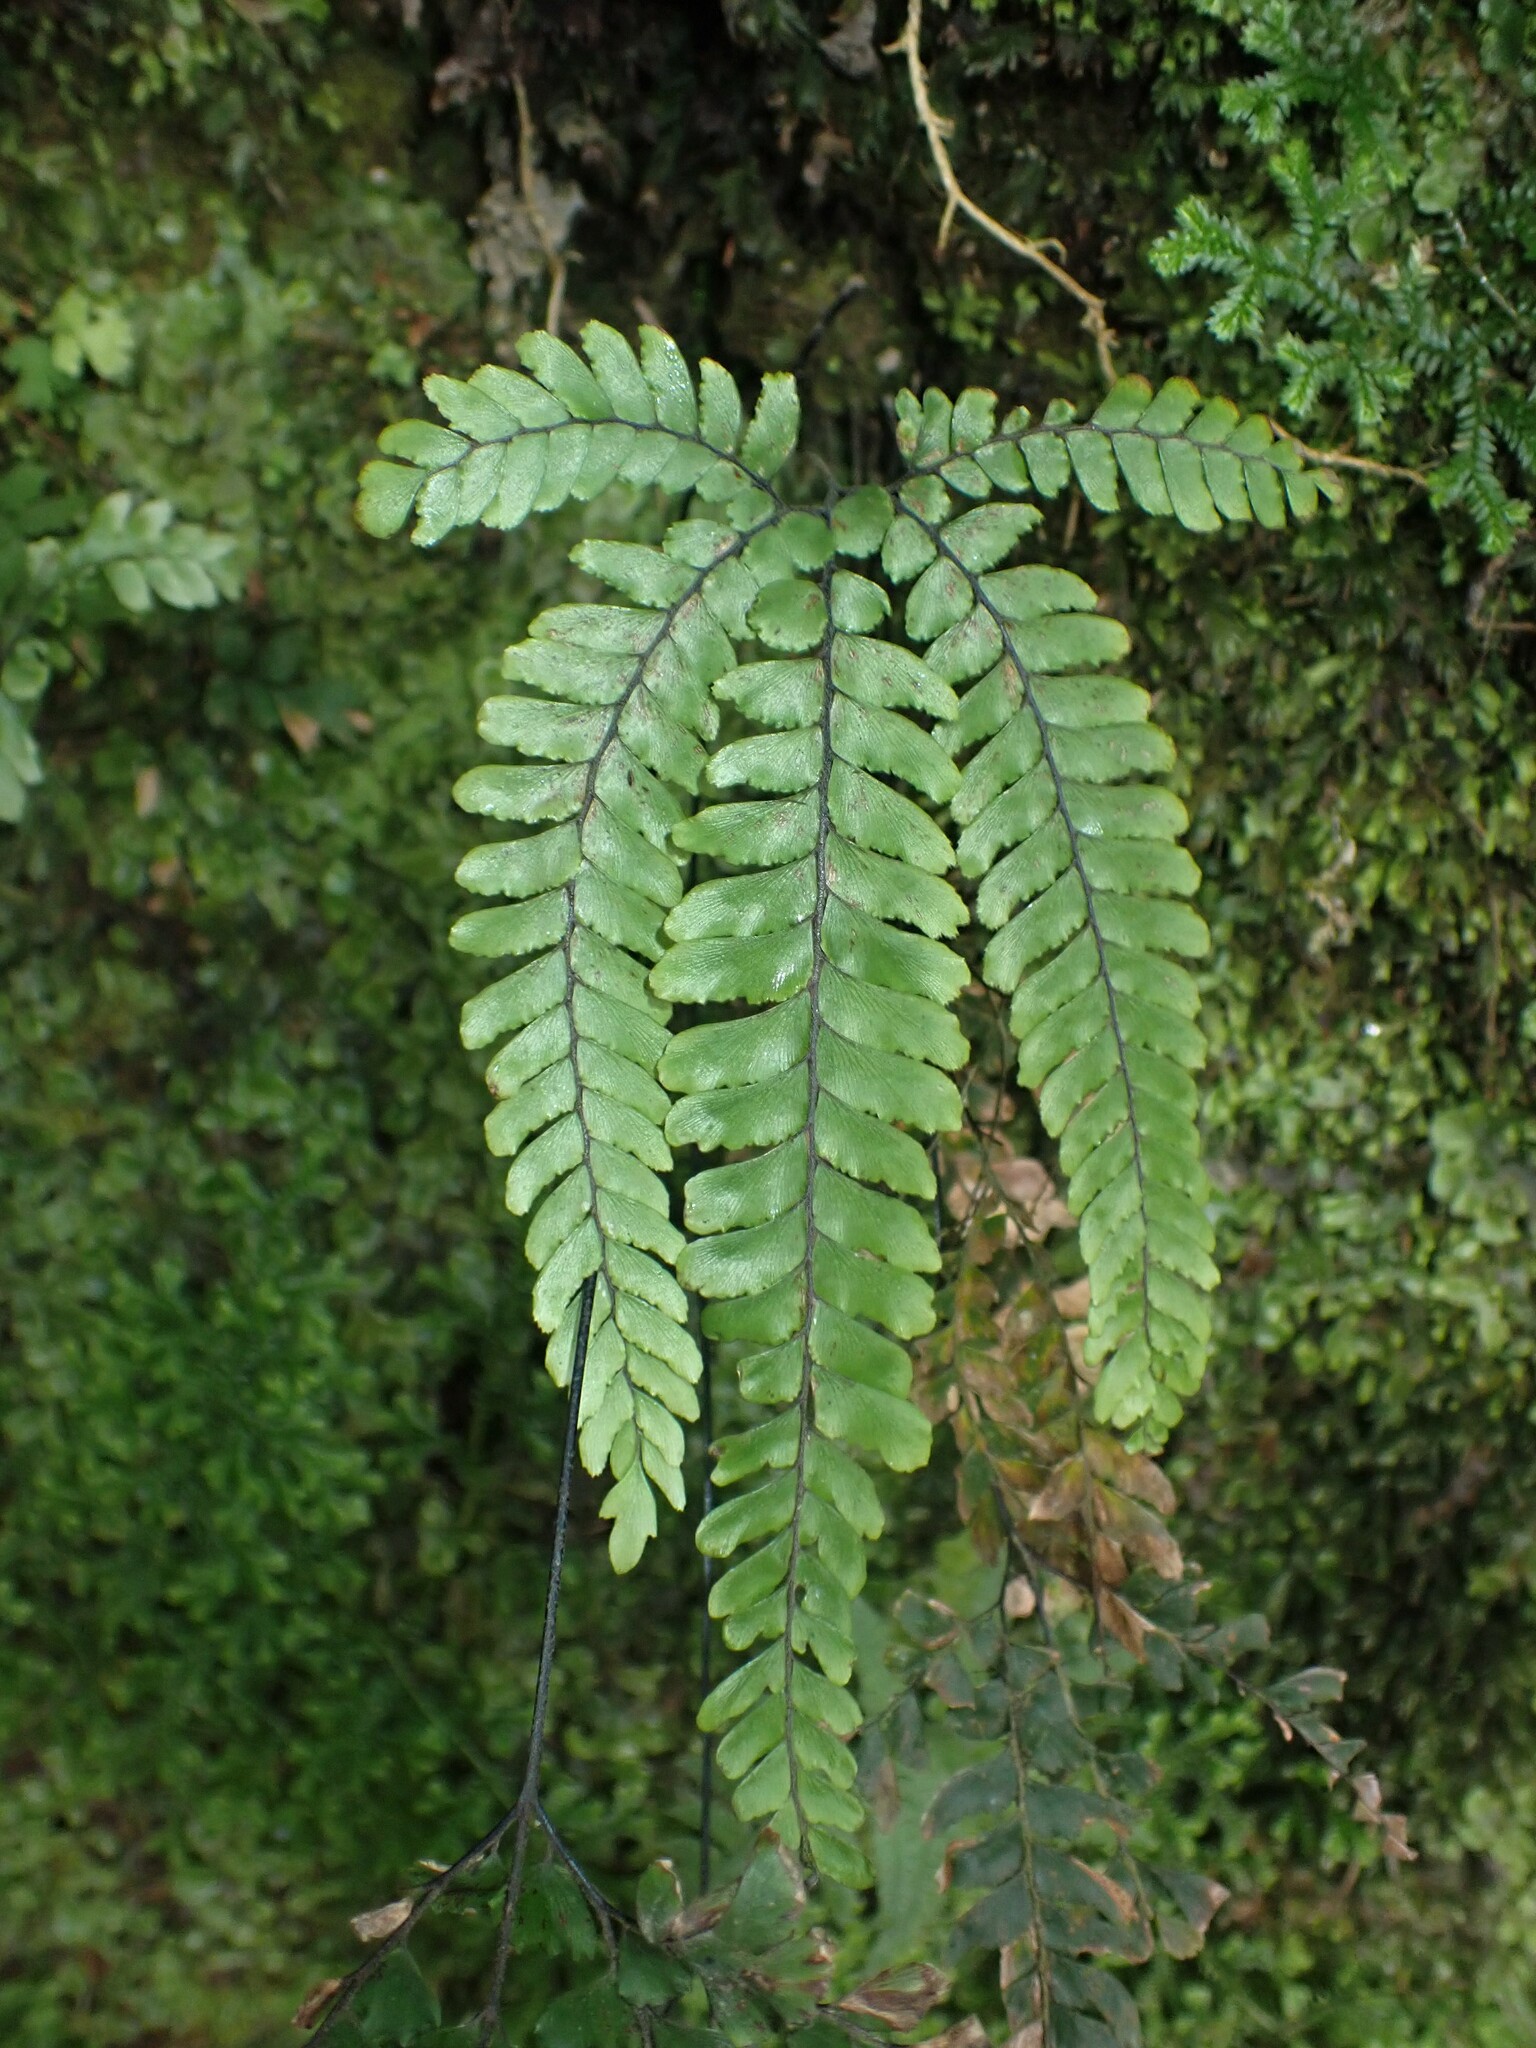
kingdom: Plantae
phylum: Tracheophyta
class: Polypodiopsida
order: Polypodiales
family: Pteridaceae
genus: Adiantum
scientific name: Adiantum hispidulum
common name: Rough maidenhair
